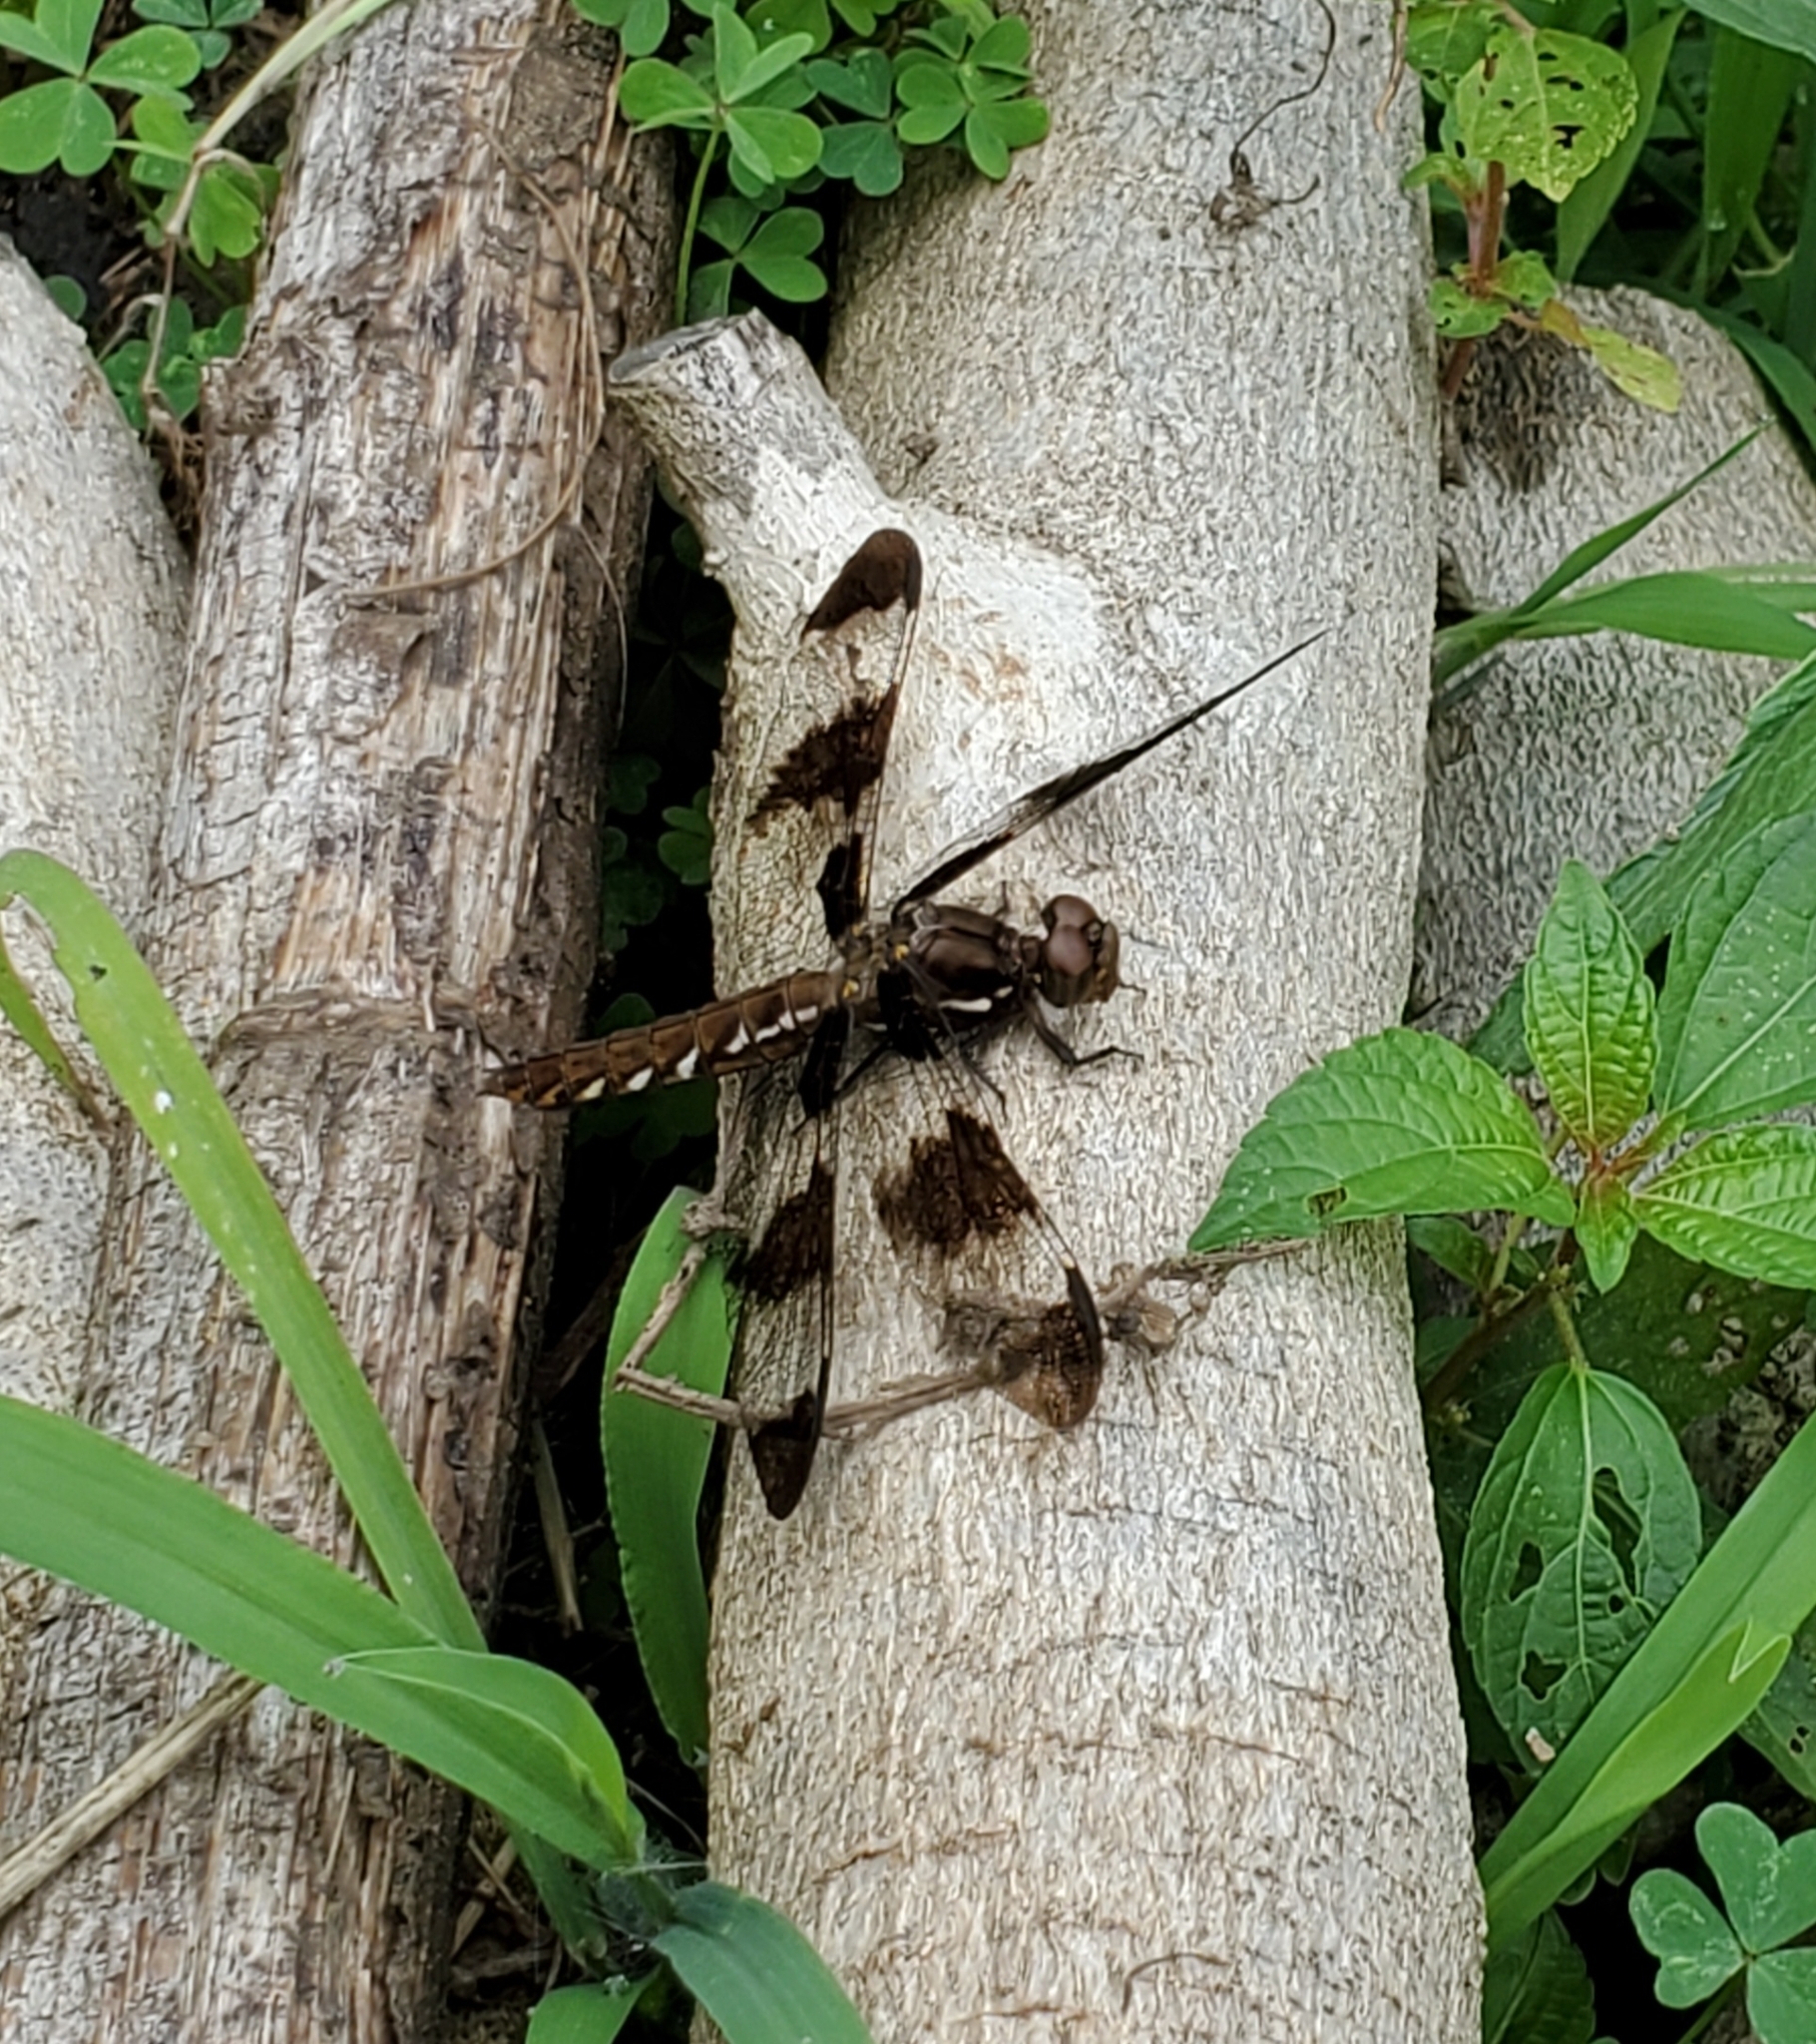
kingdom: Animalia
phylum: Arthropoda
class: Insecta
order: Odonata
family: Libellulidae
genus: Plathemis
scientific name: Plathemis lydia
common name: Common whitetail
